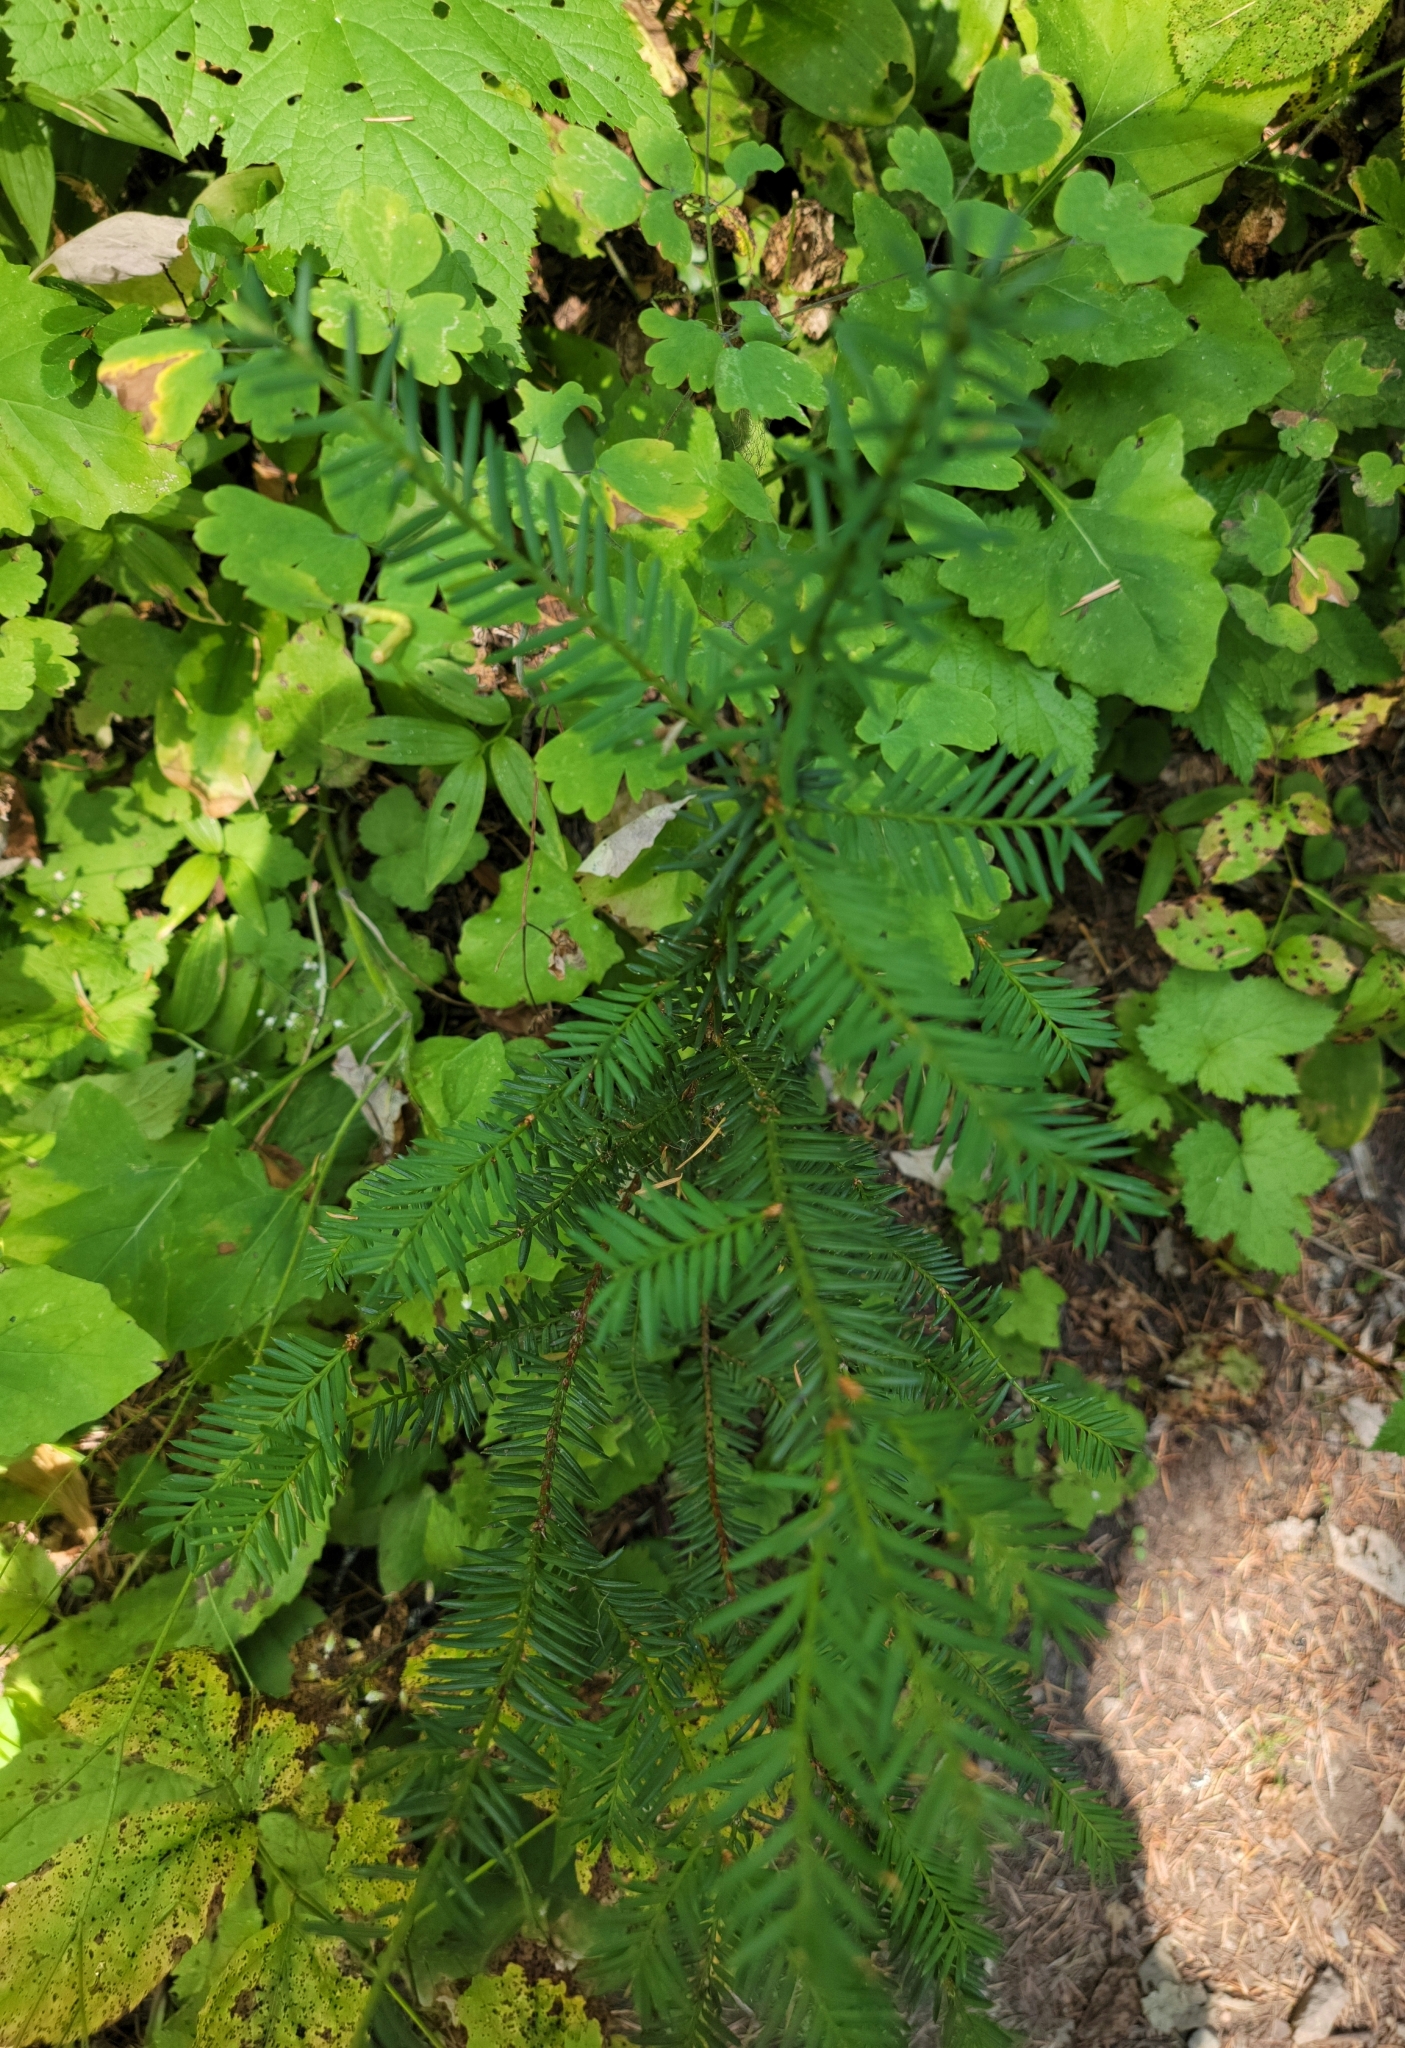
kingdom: Plantae
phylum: Tracheophyta
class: Pinopsida
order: Pinales
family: Taxaceae
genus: Taxus
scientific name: Taxus brevifolia
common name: Pacific yew
